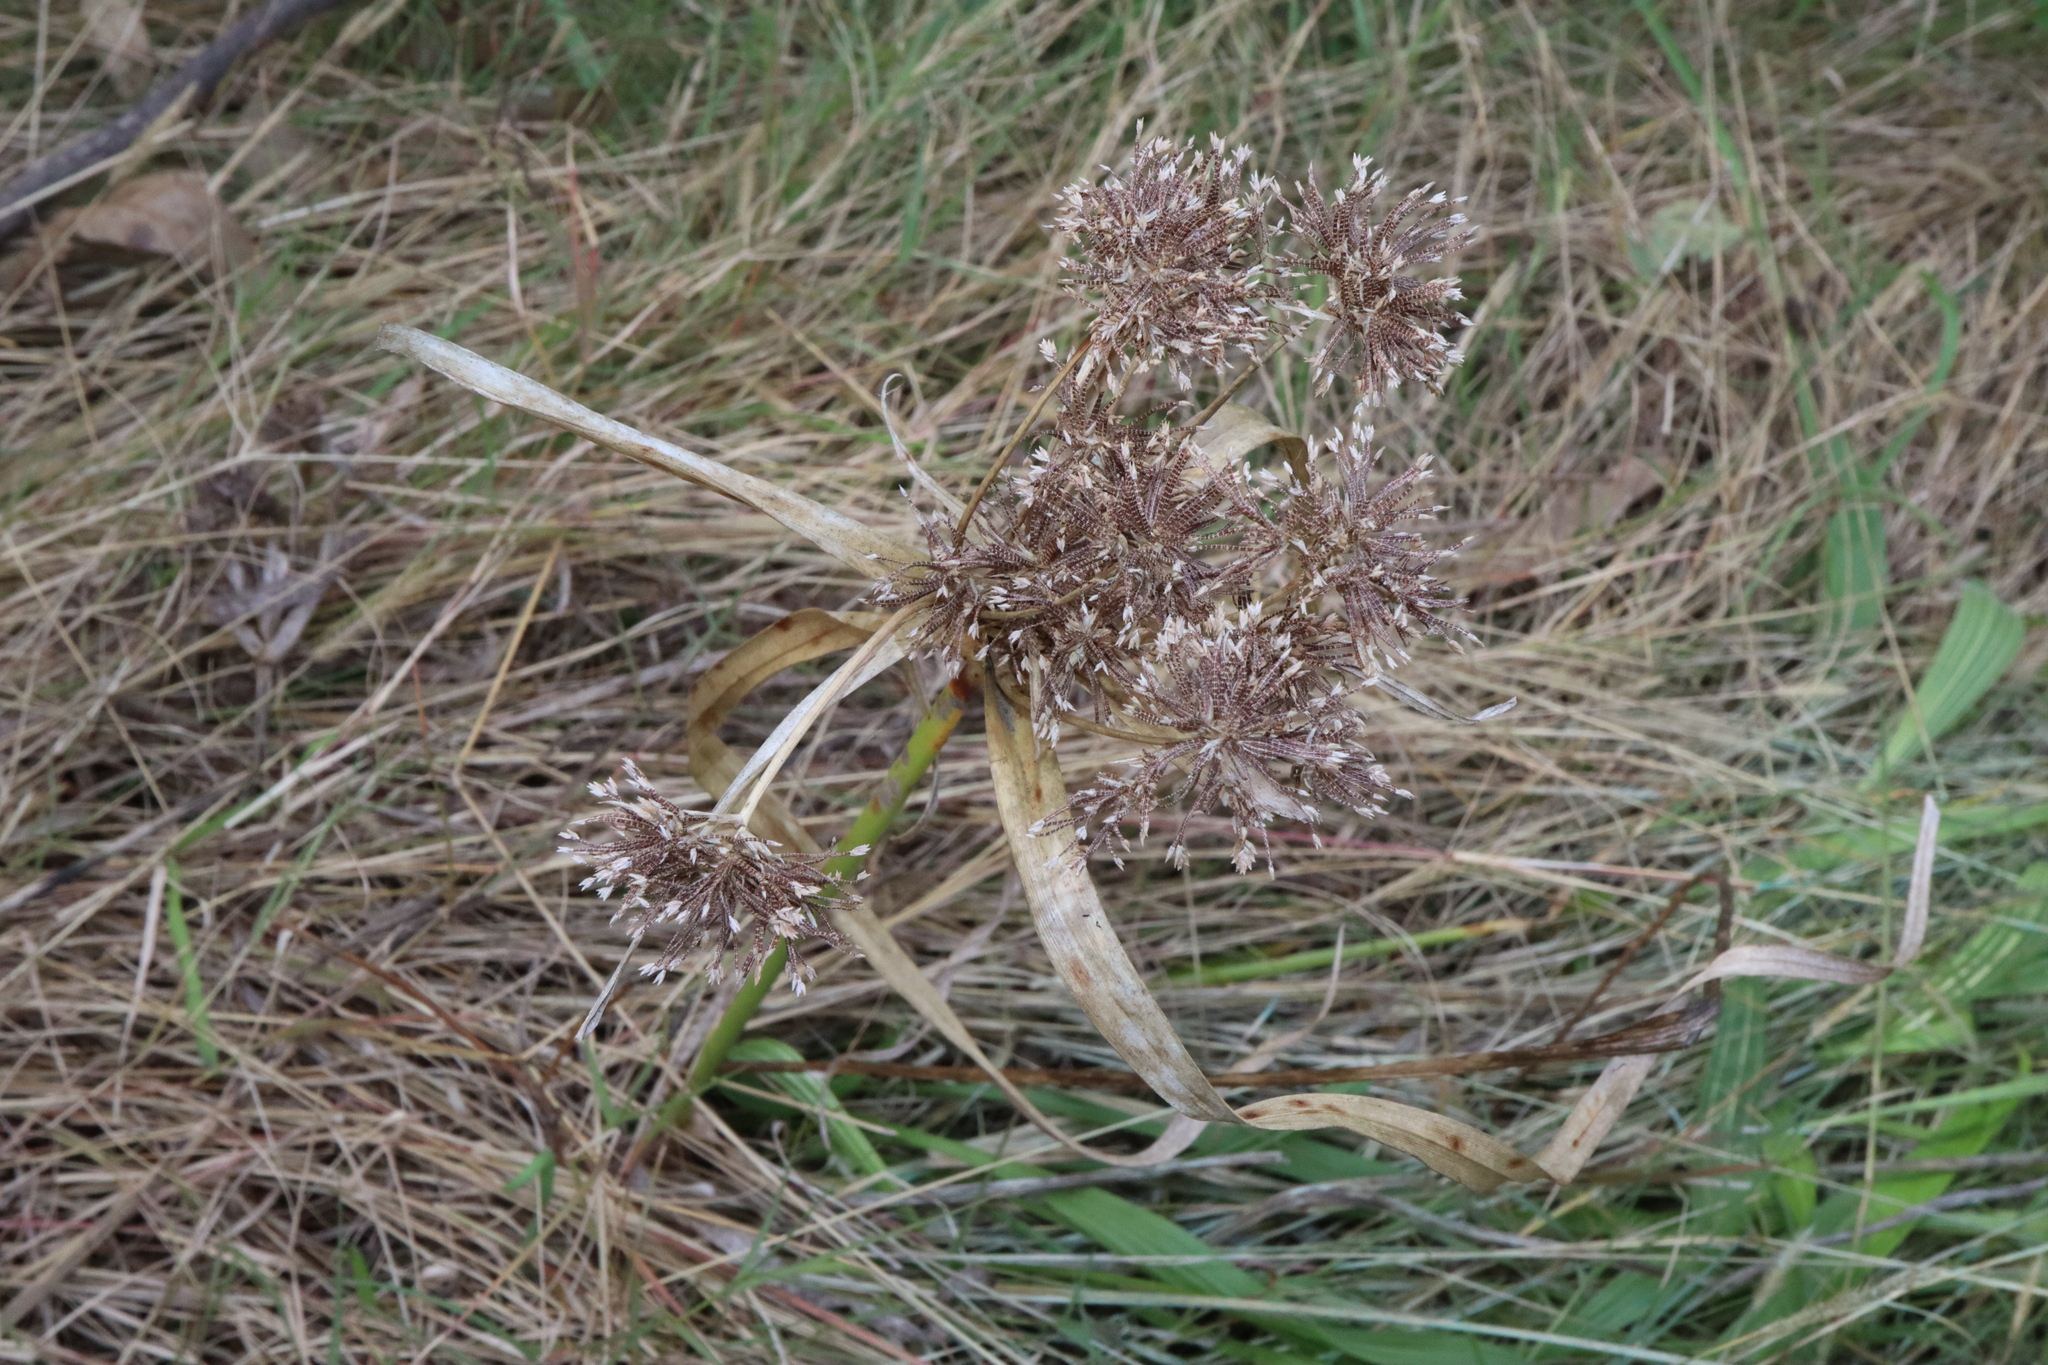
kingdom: Plantae
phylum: Tracheophyta
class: Liliopsida
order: Poales
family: Cyperaceae
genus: Cyperus
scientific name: Cyperus eragrostis
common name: Tall flatsedge
